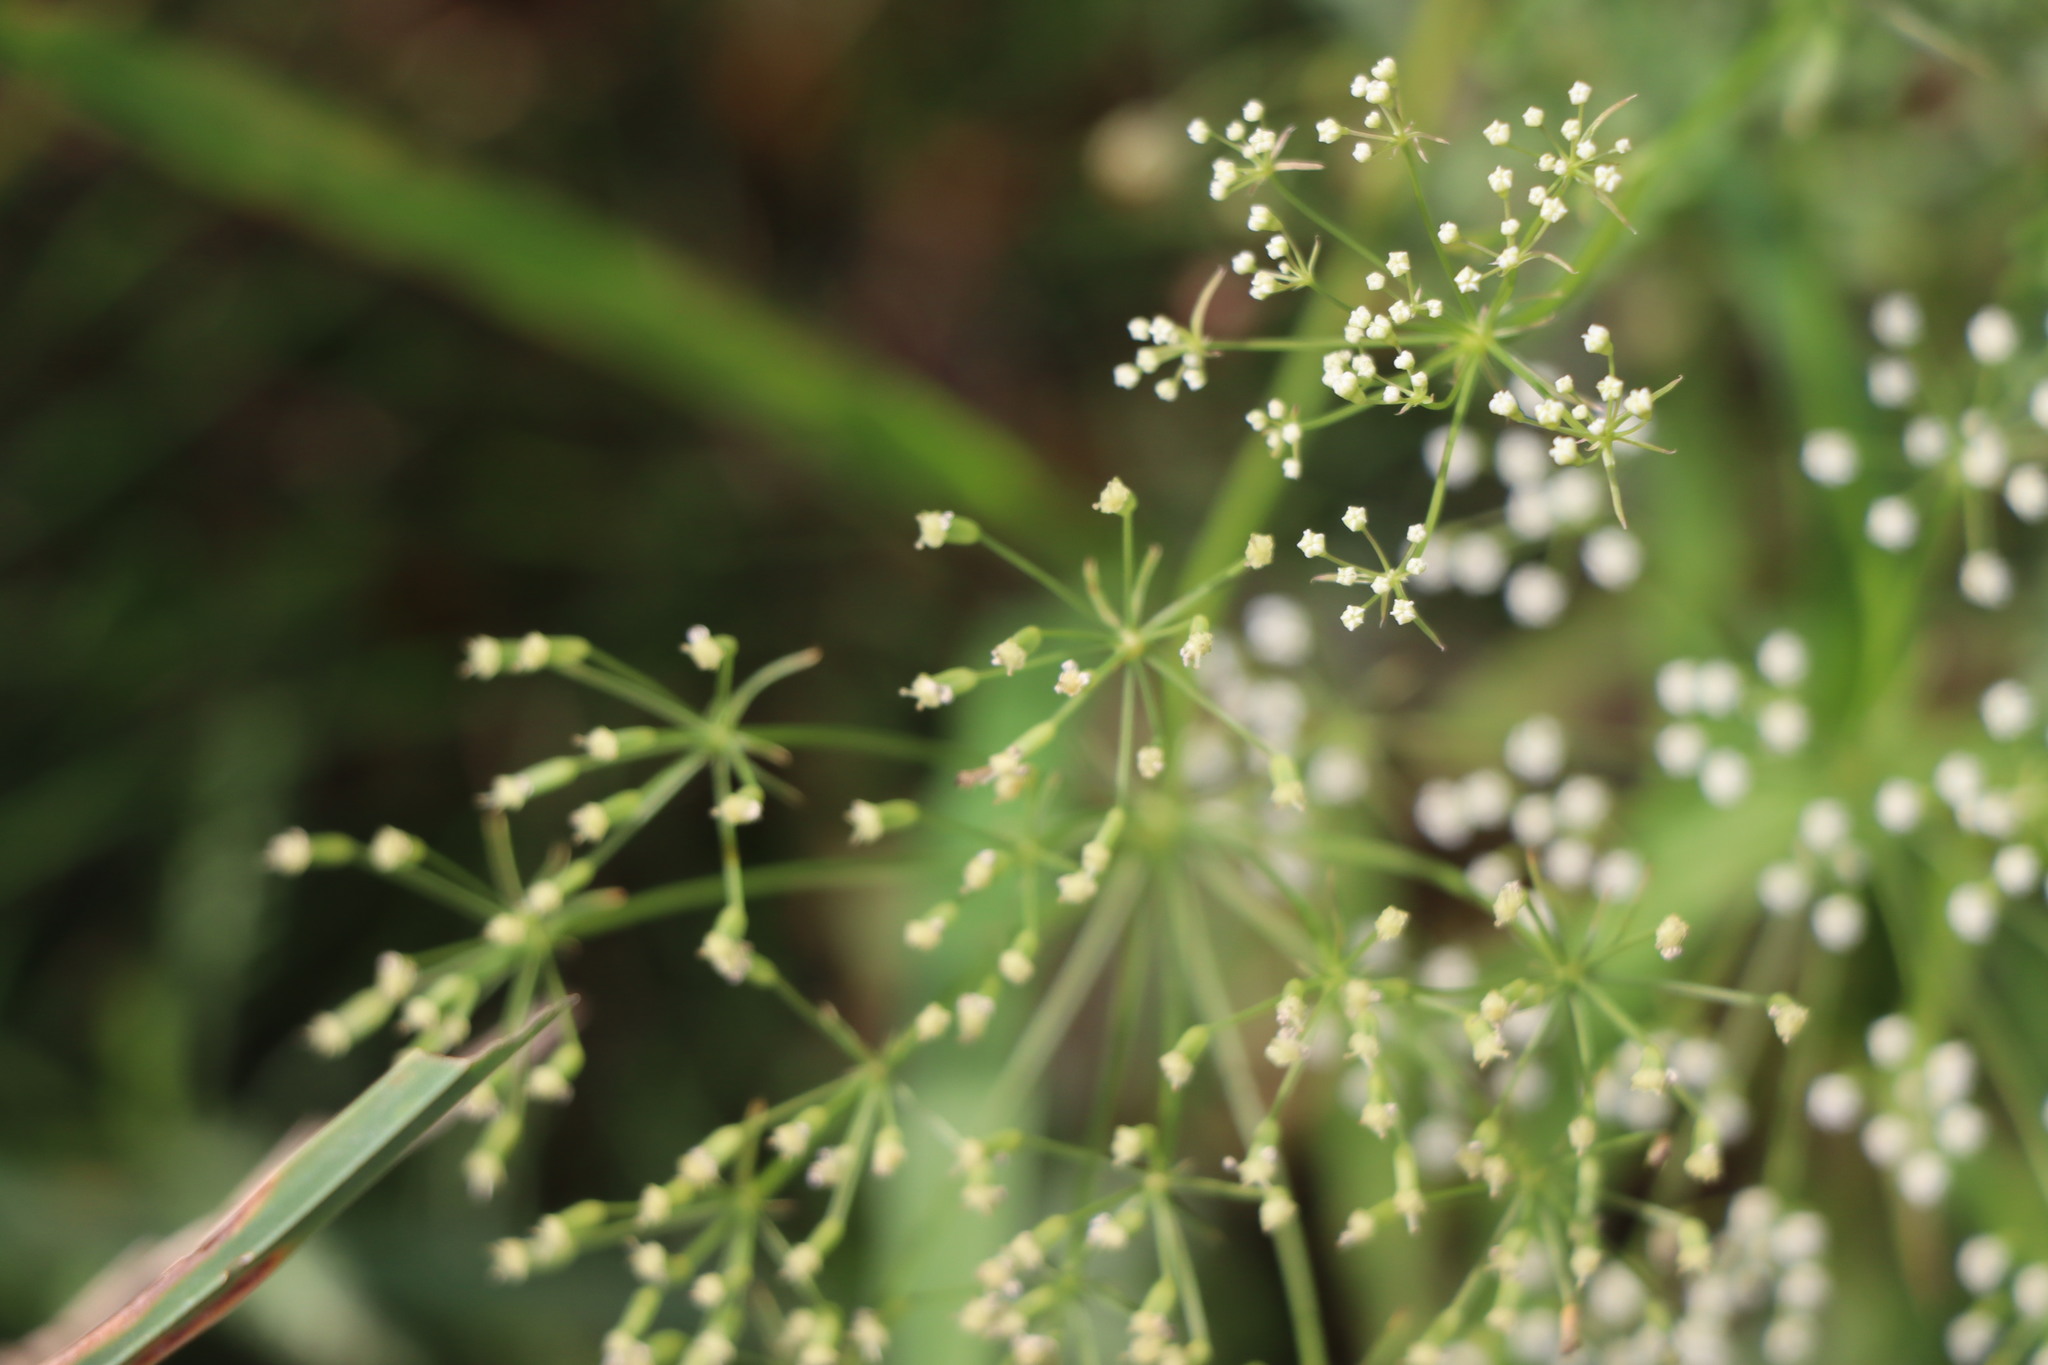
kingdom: Plantae
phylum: Tracheophyta
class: Magnoliopsida
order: Apiales
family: Apiaceae
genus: Falcaria
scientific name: Falcaria vulgaris
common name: Longleaf
